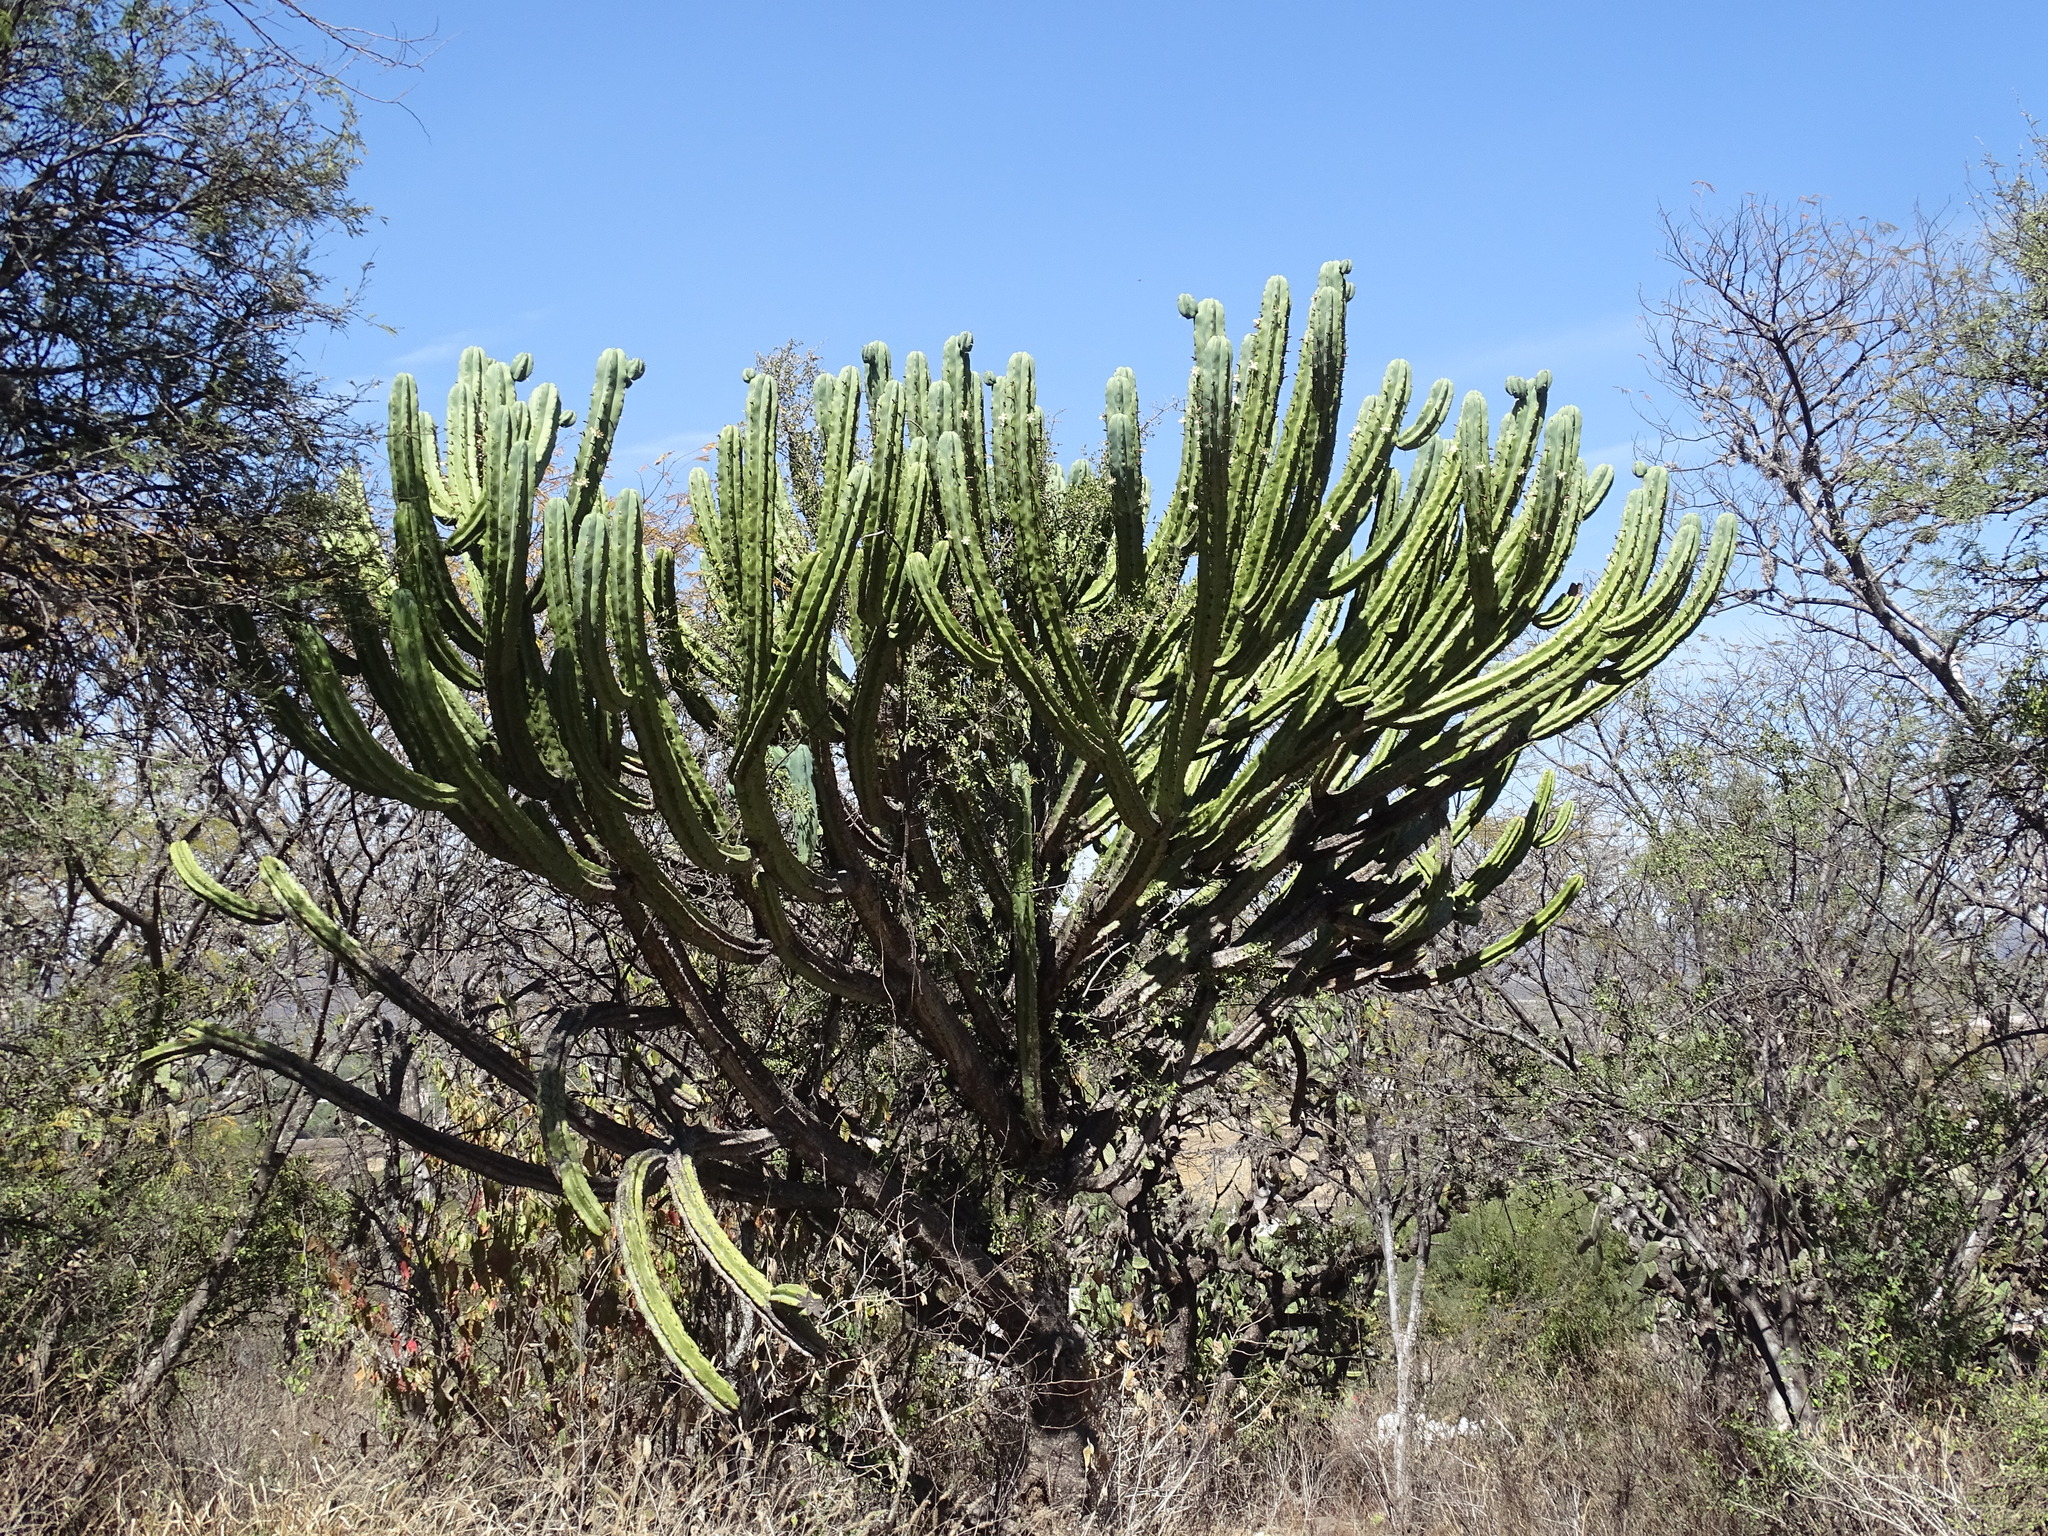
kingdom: Plantae
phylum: Tracheophyta
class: Magnoliopsida
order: Caryophyllales
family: Cactaceae
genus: Myrtillocactus
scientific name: Myrtillocactus geometrizans
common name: Bilberry cactus
